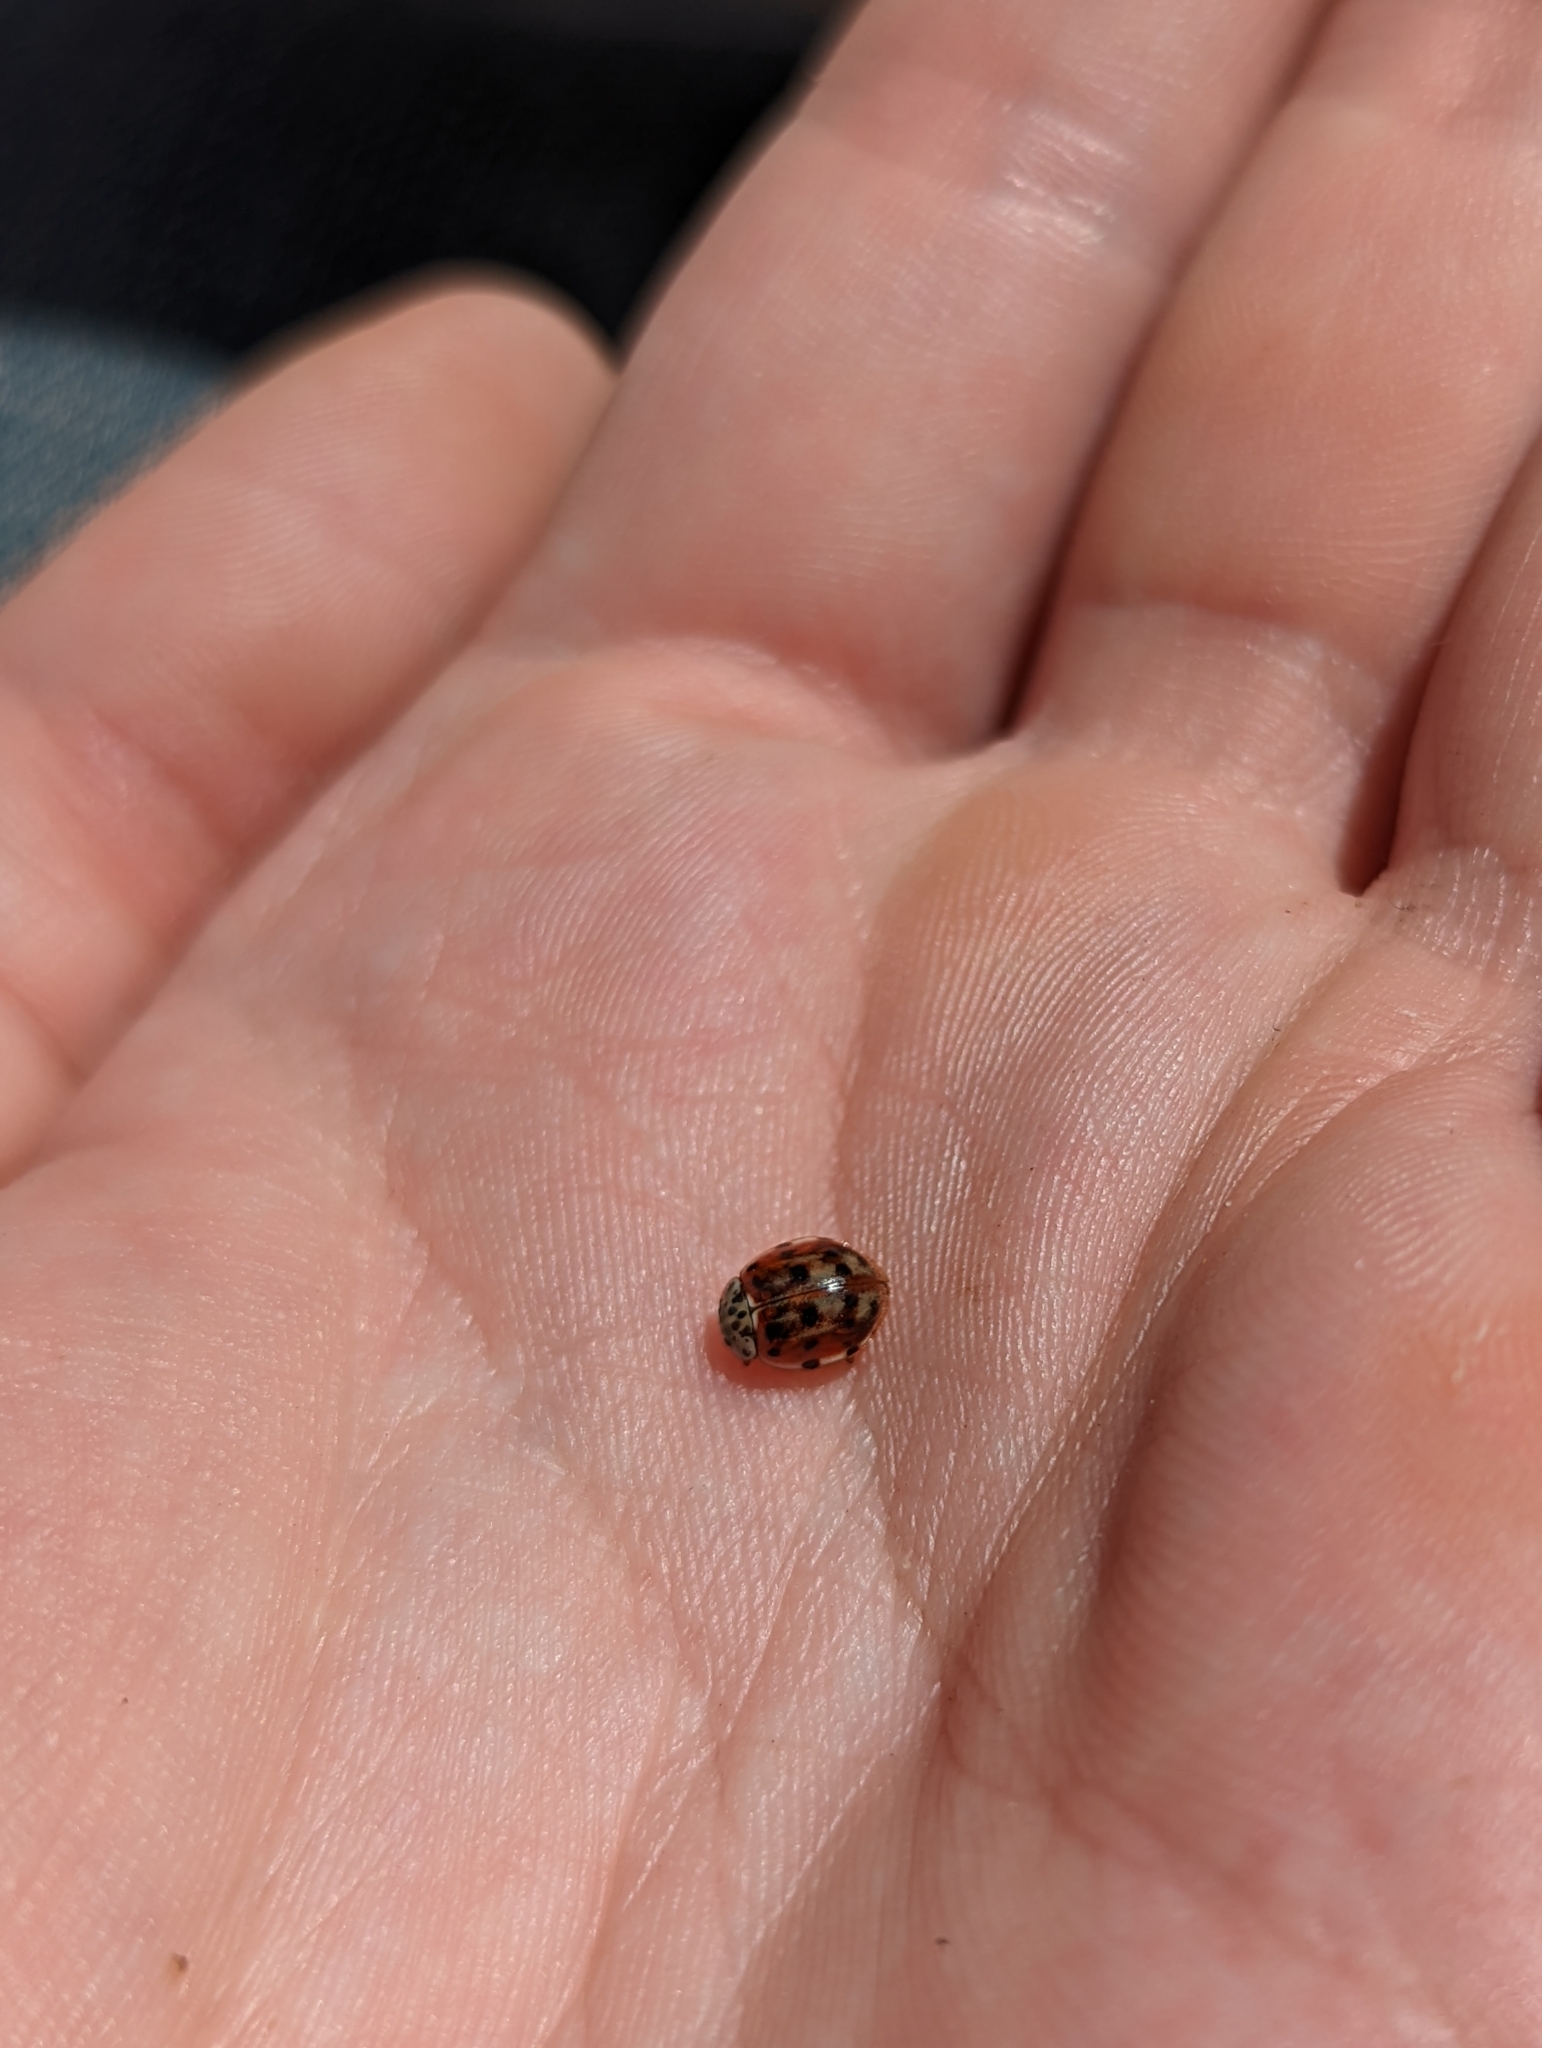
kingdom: Animalia
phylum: Arthropoda
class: Insecta
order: Coleoptera
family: Coccinellidae
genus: Harmonia
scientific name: Harmonia quadripunctata
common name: Cream-streaked ladybird
